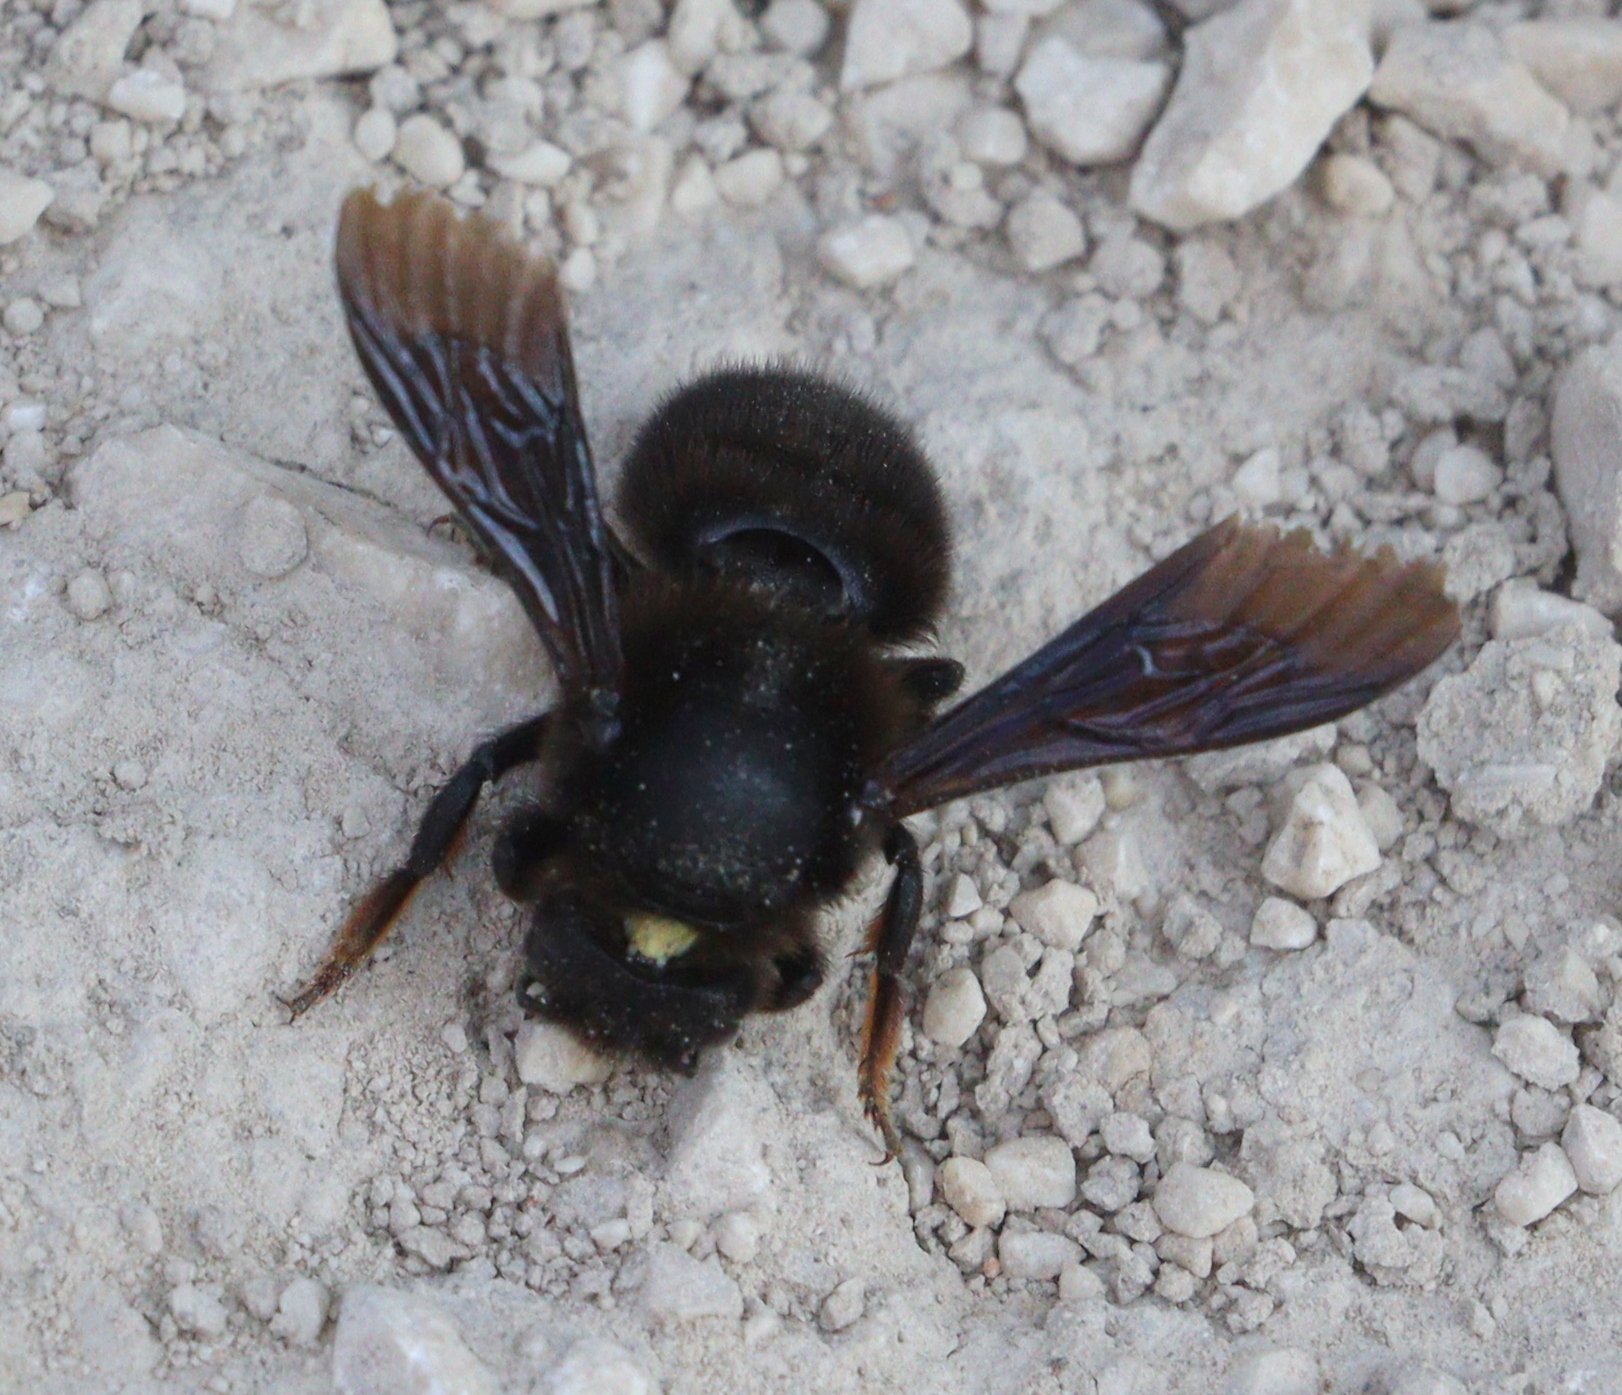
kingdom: Animalia
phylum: Arthropoda
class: Insecta
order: Hymenoptera
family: Megachilidae
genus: Megachile
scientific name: Megachile parietina
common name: Black mud bee
